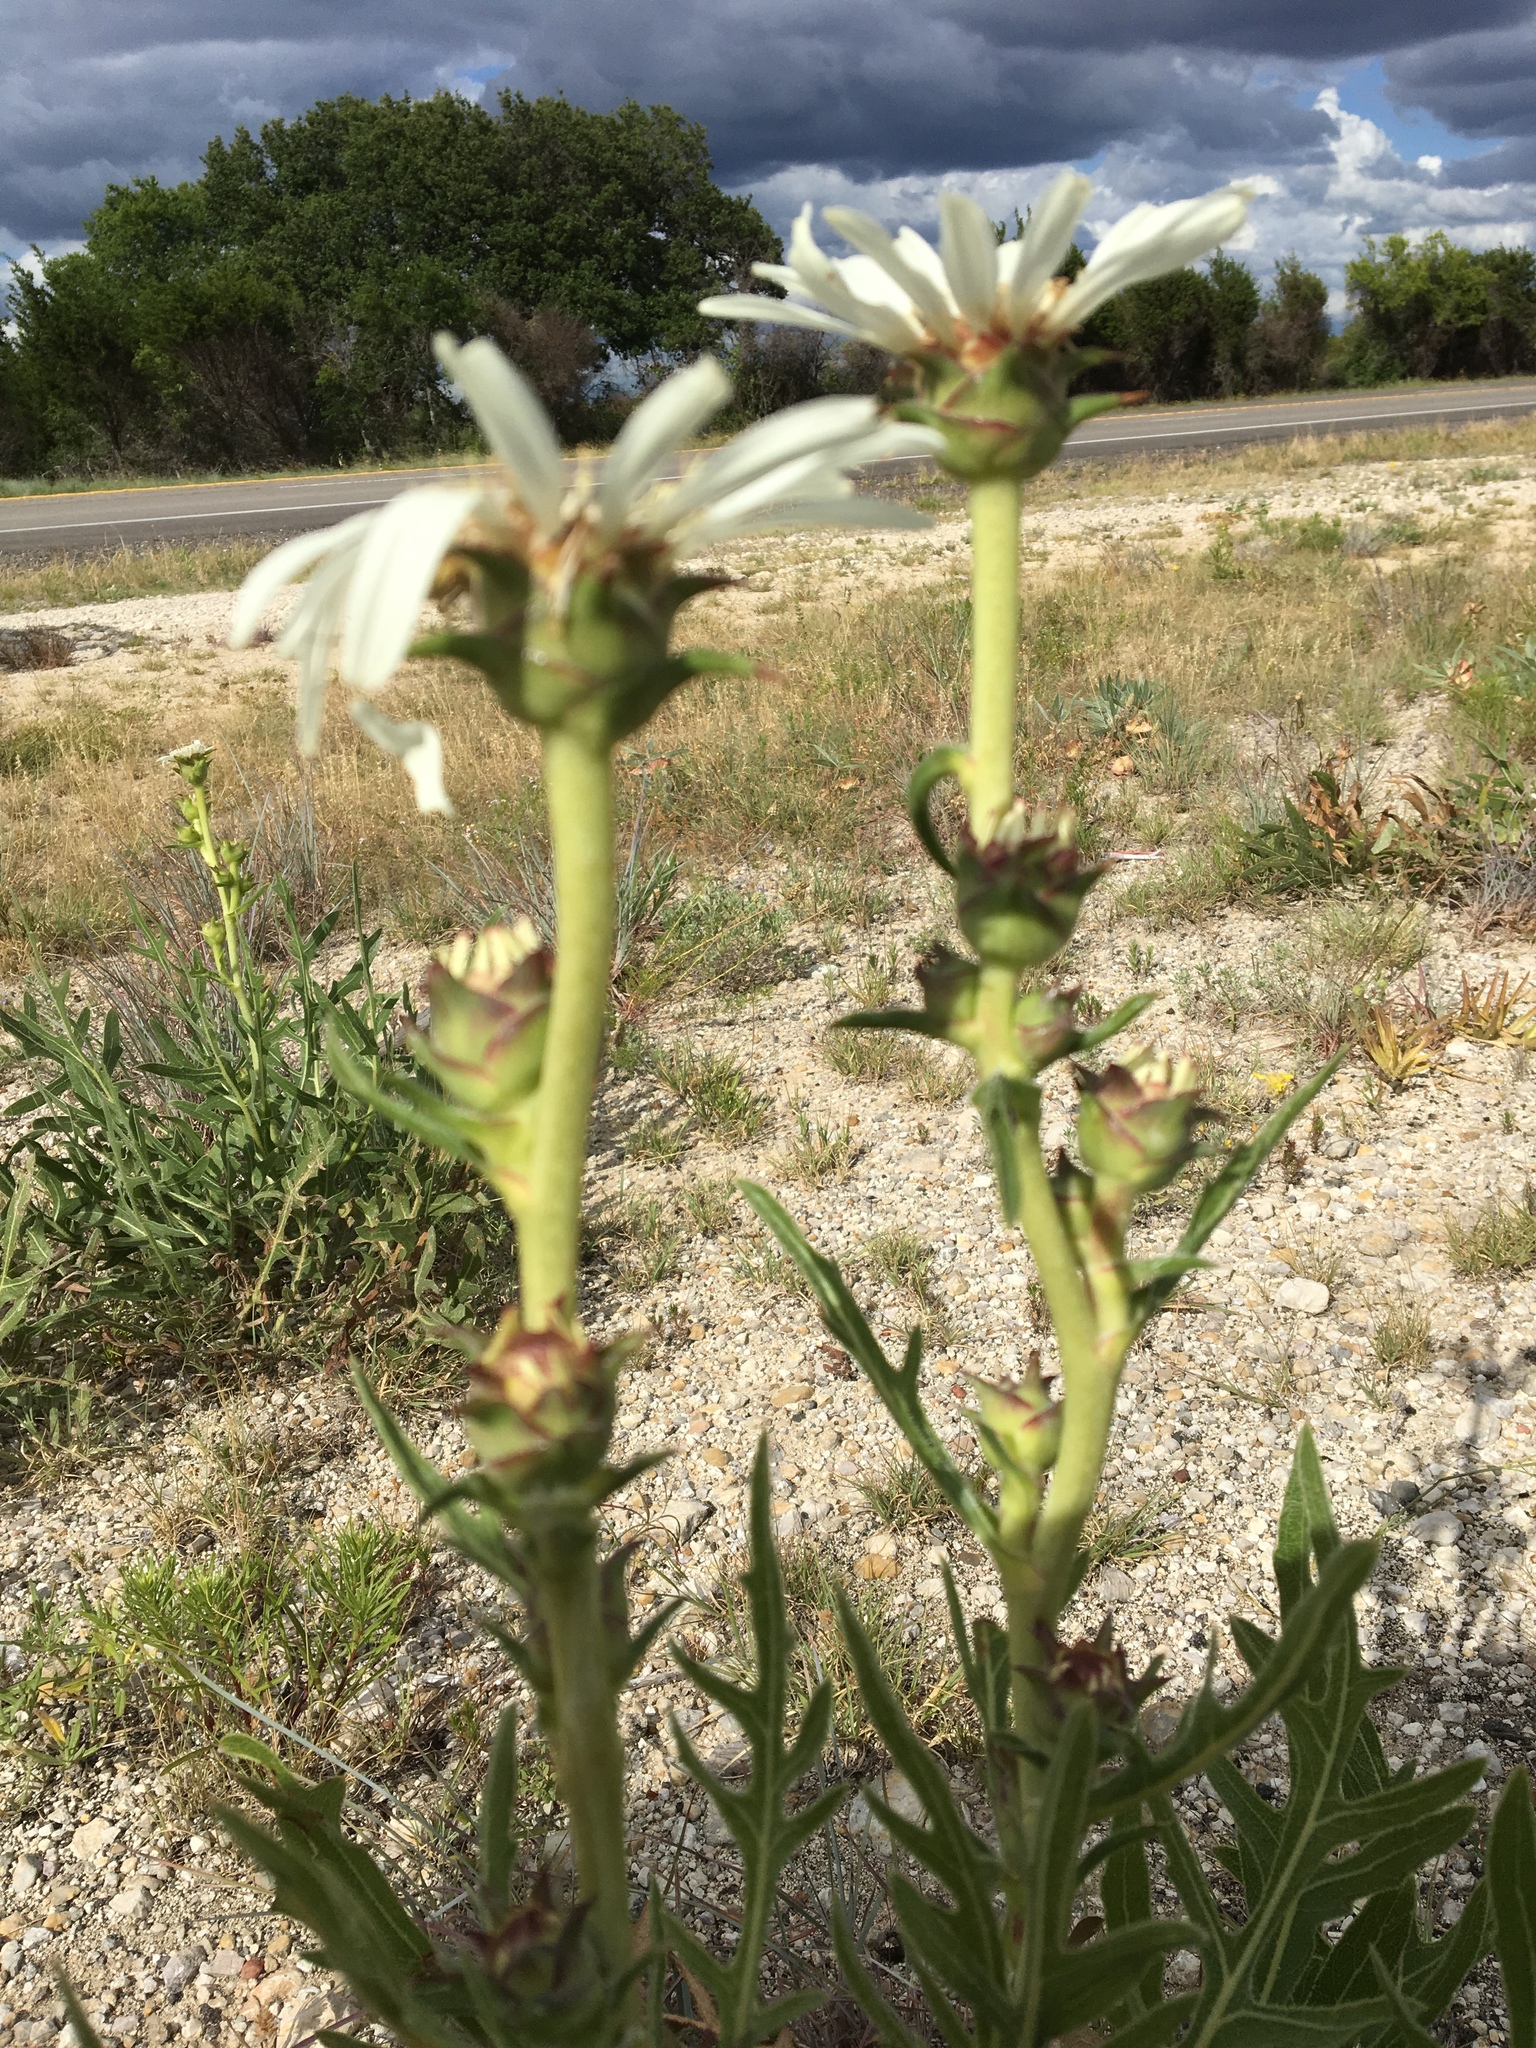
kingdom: Plantae
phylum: Tracheophyta
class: Magnoliopsida
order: Asterales
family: Asteraceae
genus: Silphium
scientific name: Silphium albiflorum
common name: White rosinweed
